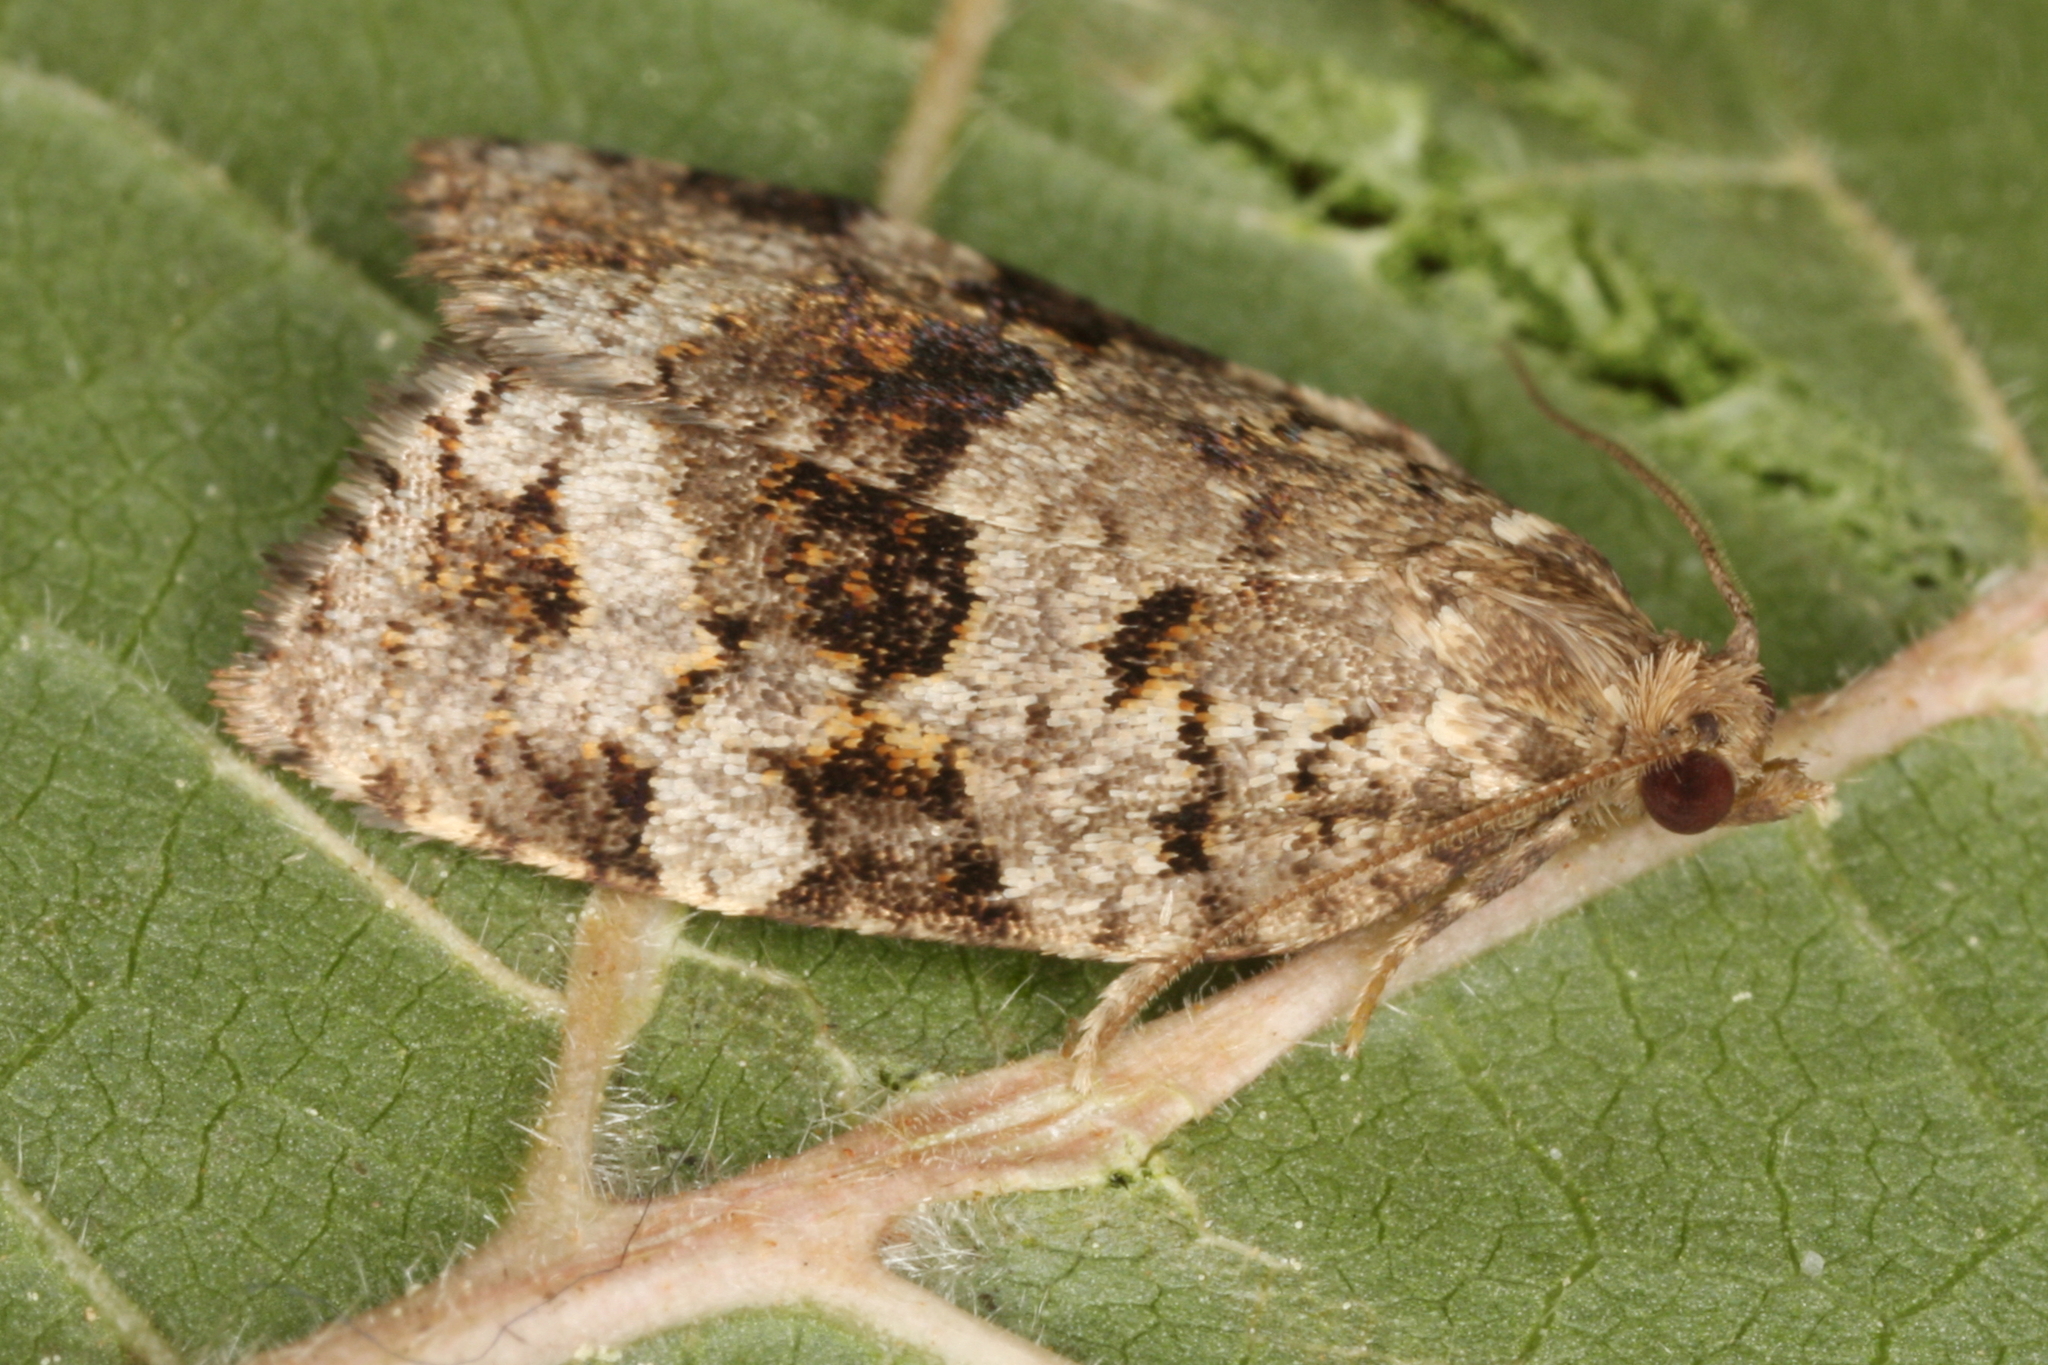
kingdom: Animalia
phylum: Arthropoda
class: Insecta
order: Lepidoptera
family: Tortricidae
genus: Dichelia
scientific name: Dichelia histrionana
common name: Tortricid moth
